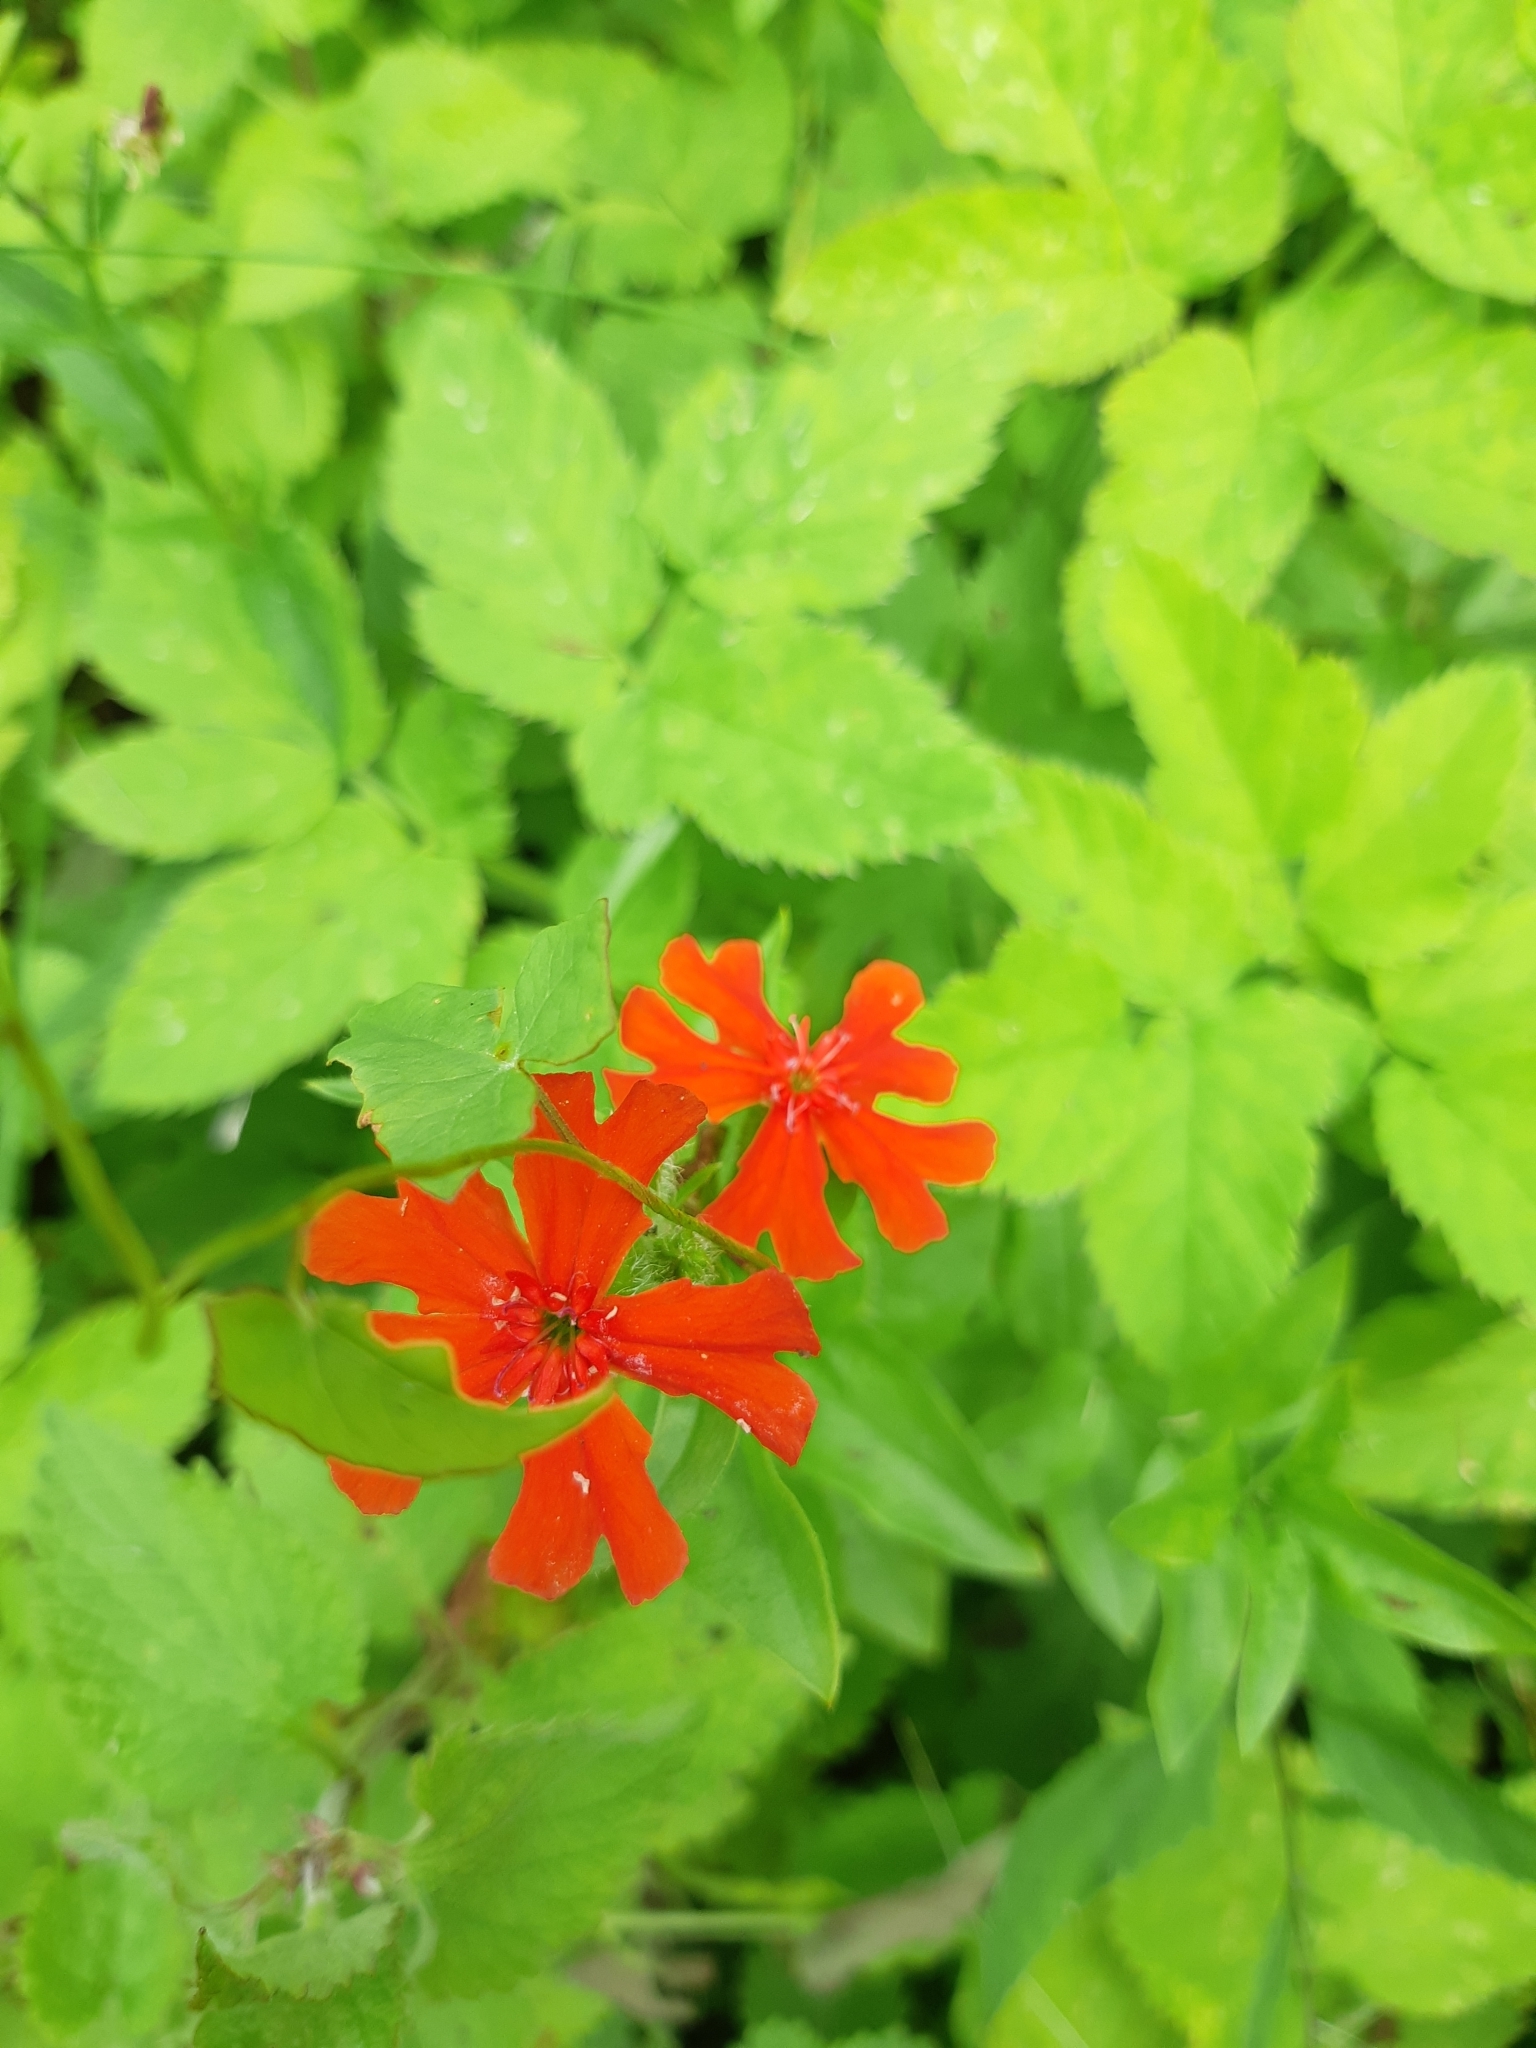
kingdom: Plantae
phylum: Tracheophyta
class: Magnoliopsida
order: Caryophyllales
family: Caryophyllaceae
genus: Silene
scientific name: Silene chalcedonica
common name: Maltese-cross
